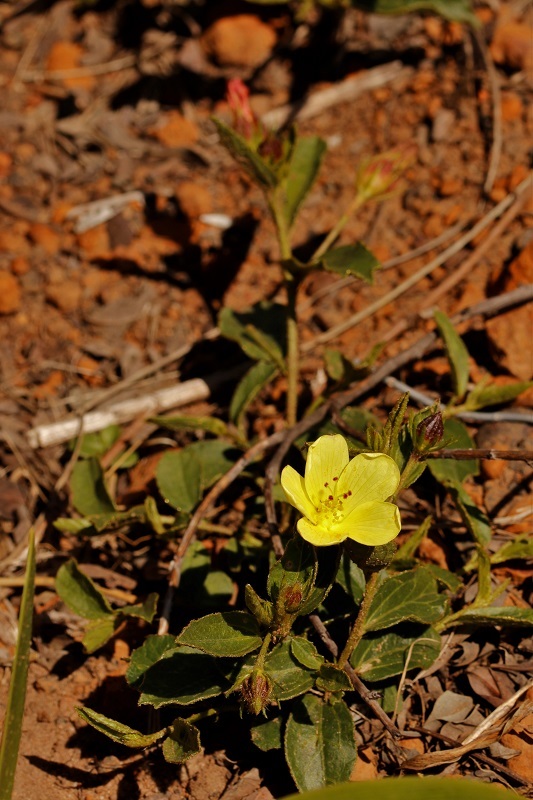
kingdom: Plantae
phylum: Tracheophyta
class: Magnoliopsida
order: Malvales
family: Malvaceae
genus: Hibiscus
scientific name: Hibiscus aethiopicus
